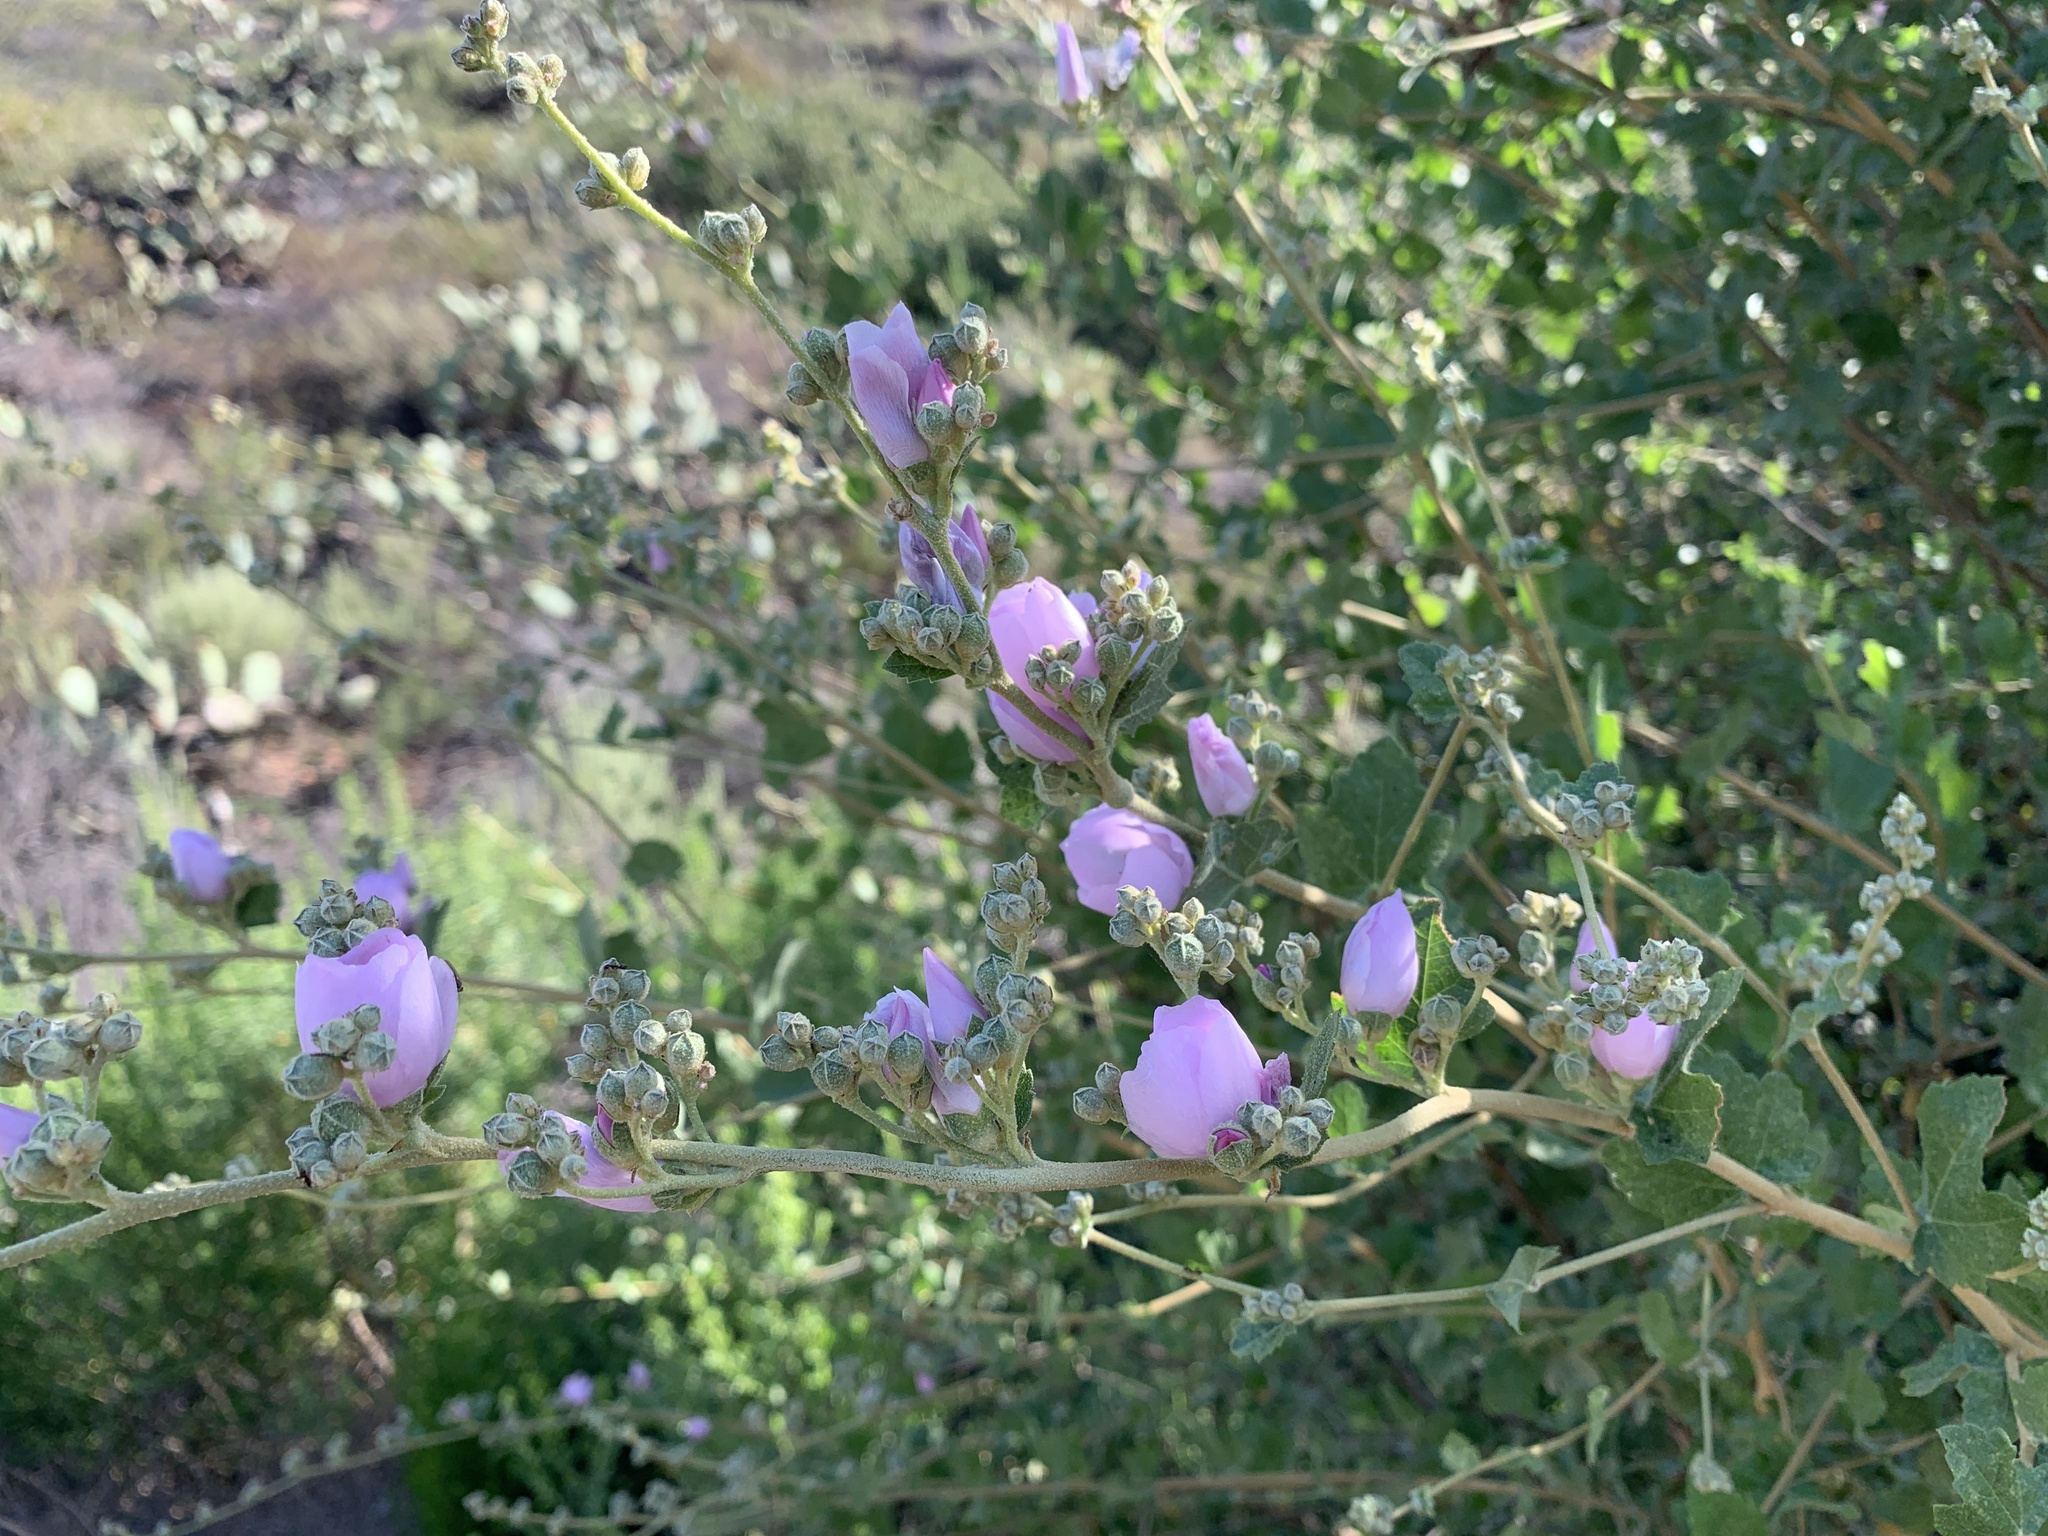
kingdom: Plantae
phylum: Tracheophyta
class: Magnoliopsida
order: Malvales
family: Malvaceae
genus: Malacothamnus
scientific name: Malacothamnus fasciculatus
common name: Sant cruz island bush-mallow
